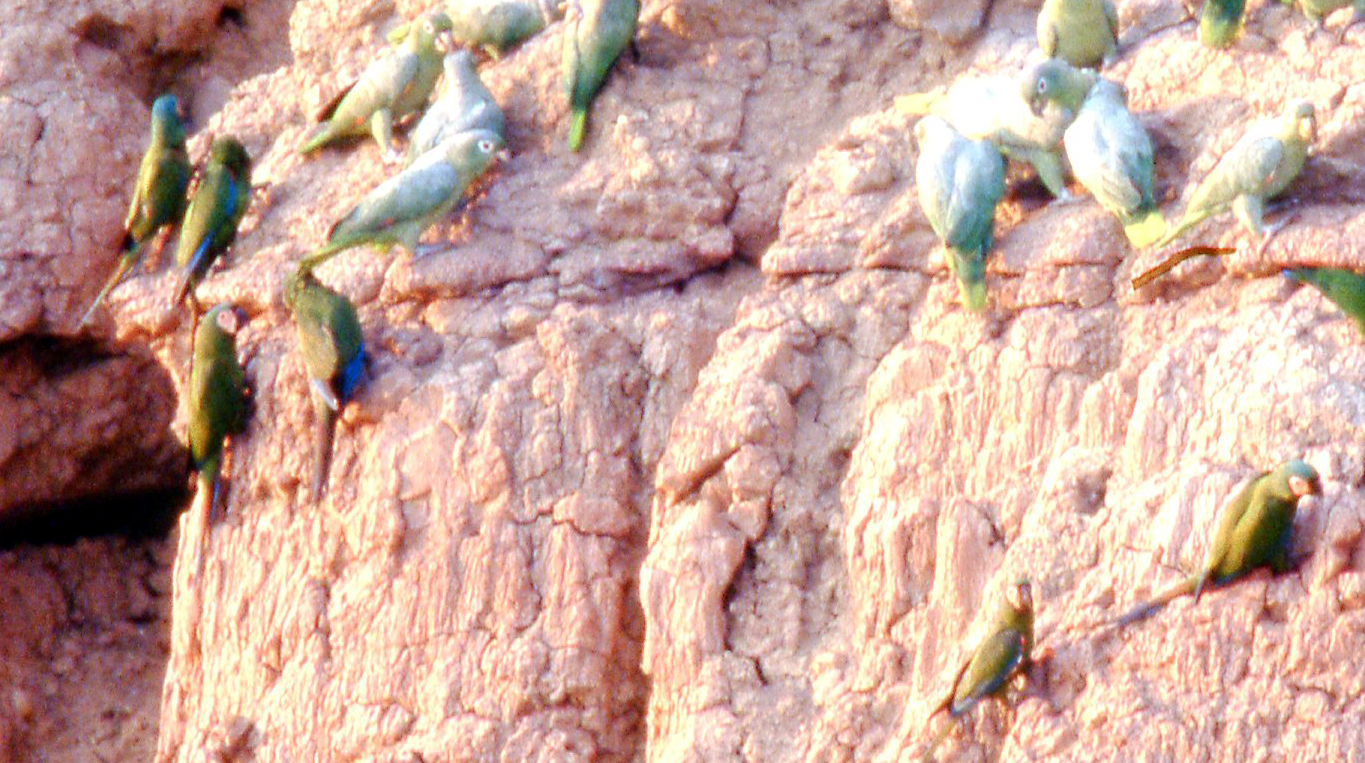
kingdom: Animalia
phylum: Chordata
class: Aves
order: Psittaciformes
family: Psittacidae
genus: Ara
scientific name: Ara severus
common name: Chestnut-fronted macaw
